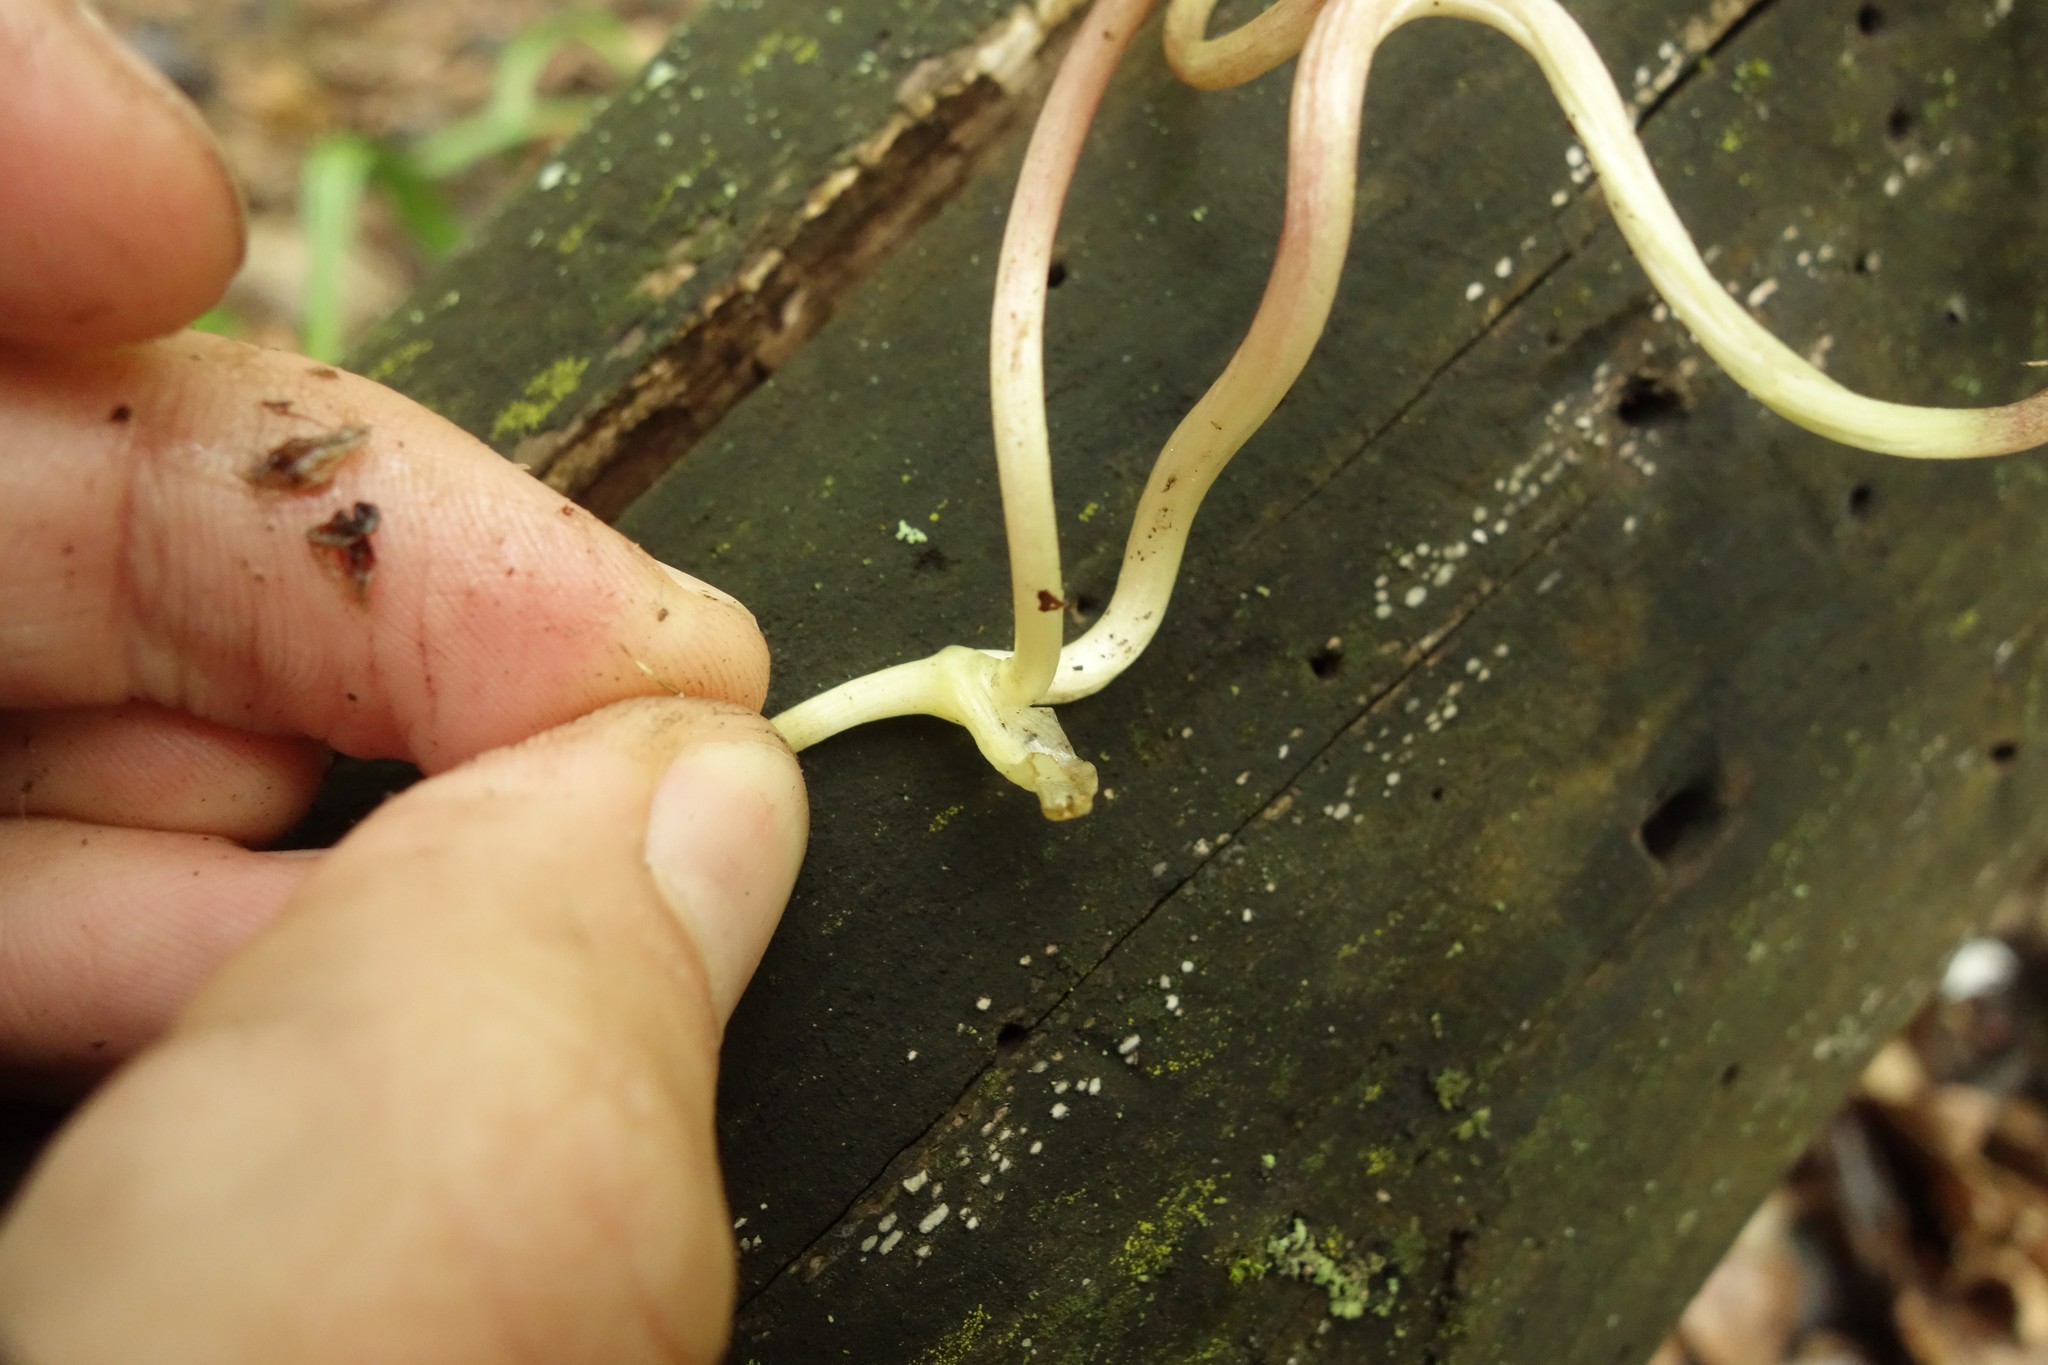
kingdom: Plantae
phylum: Tracheophyta
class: Magnoliopsida
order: Ranunculales
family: Papaveraceae
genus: Corydalis
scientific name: Corydalis intermedia
